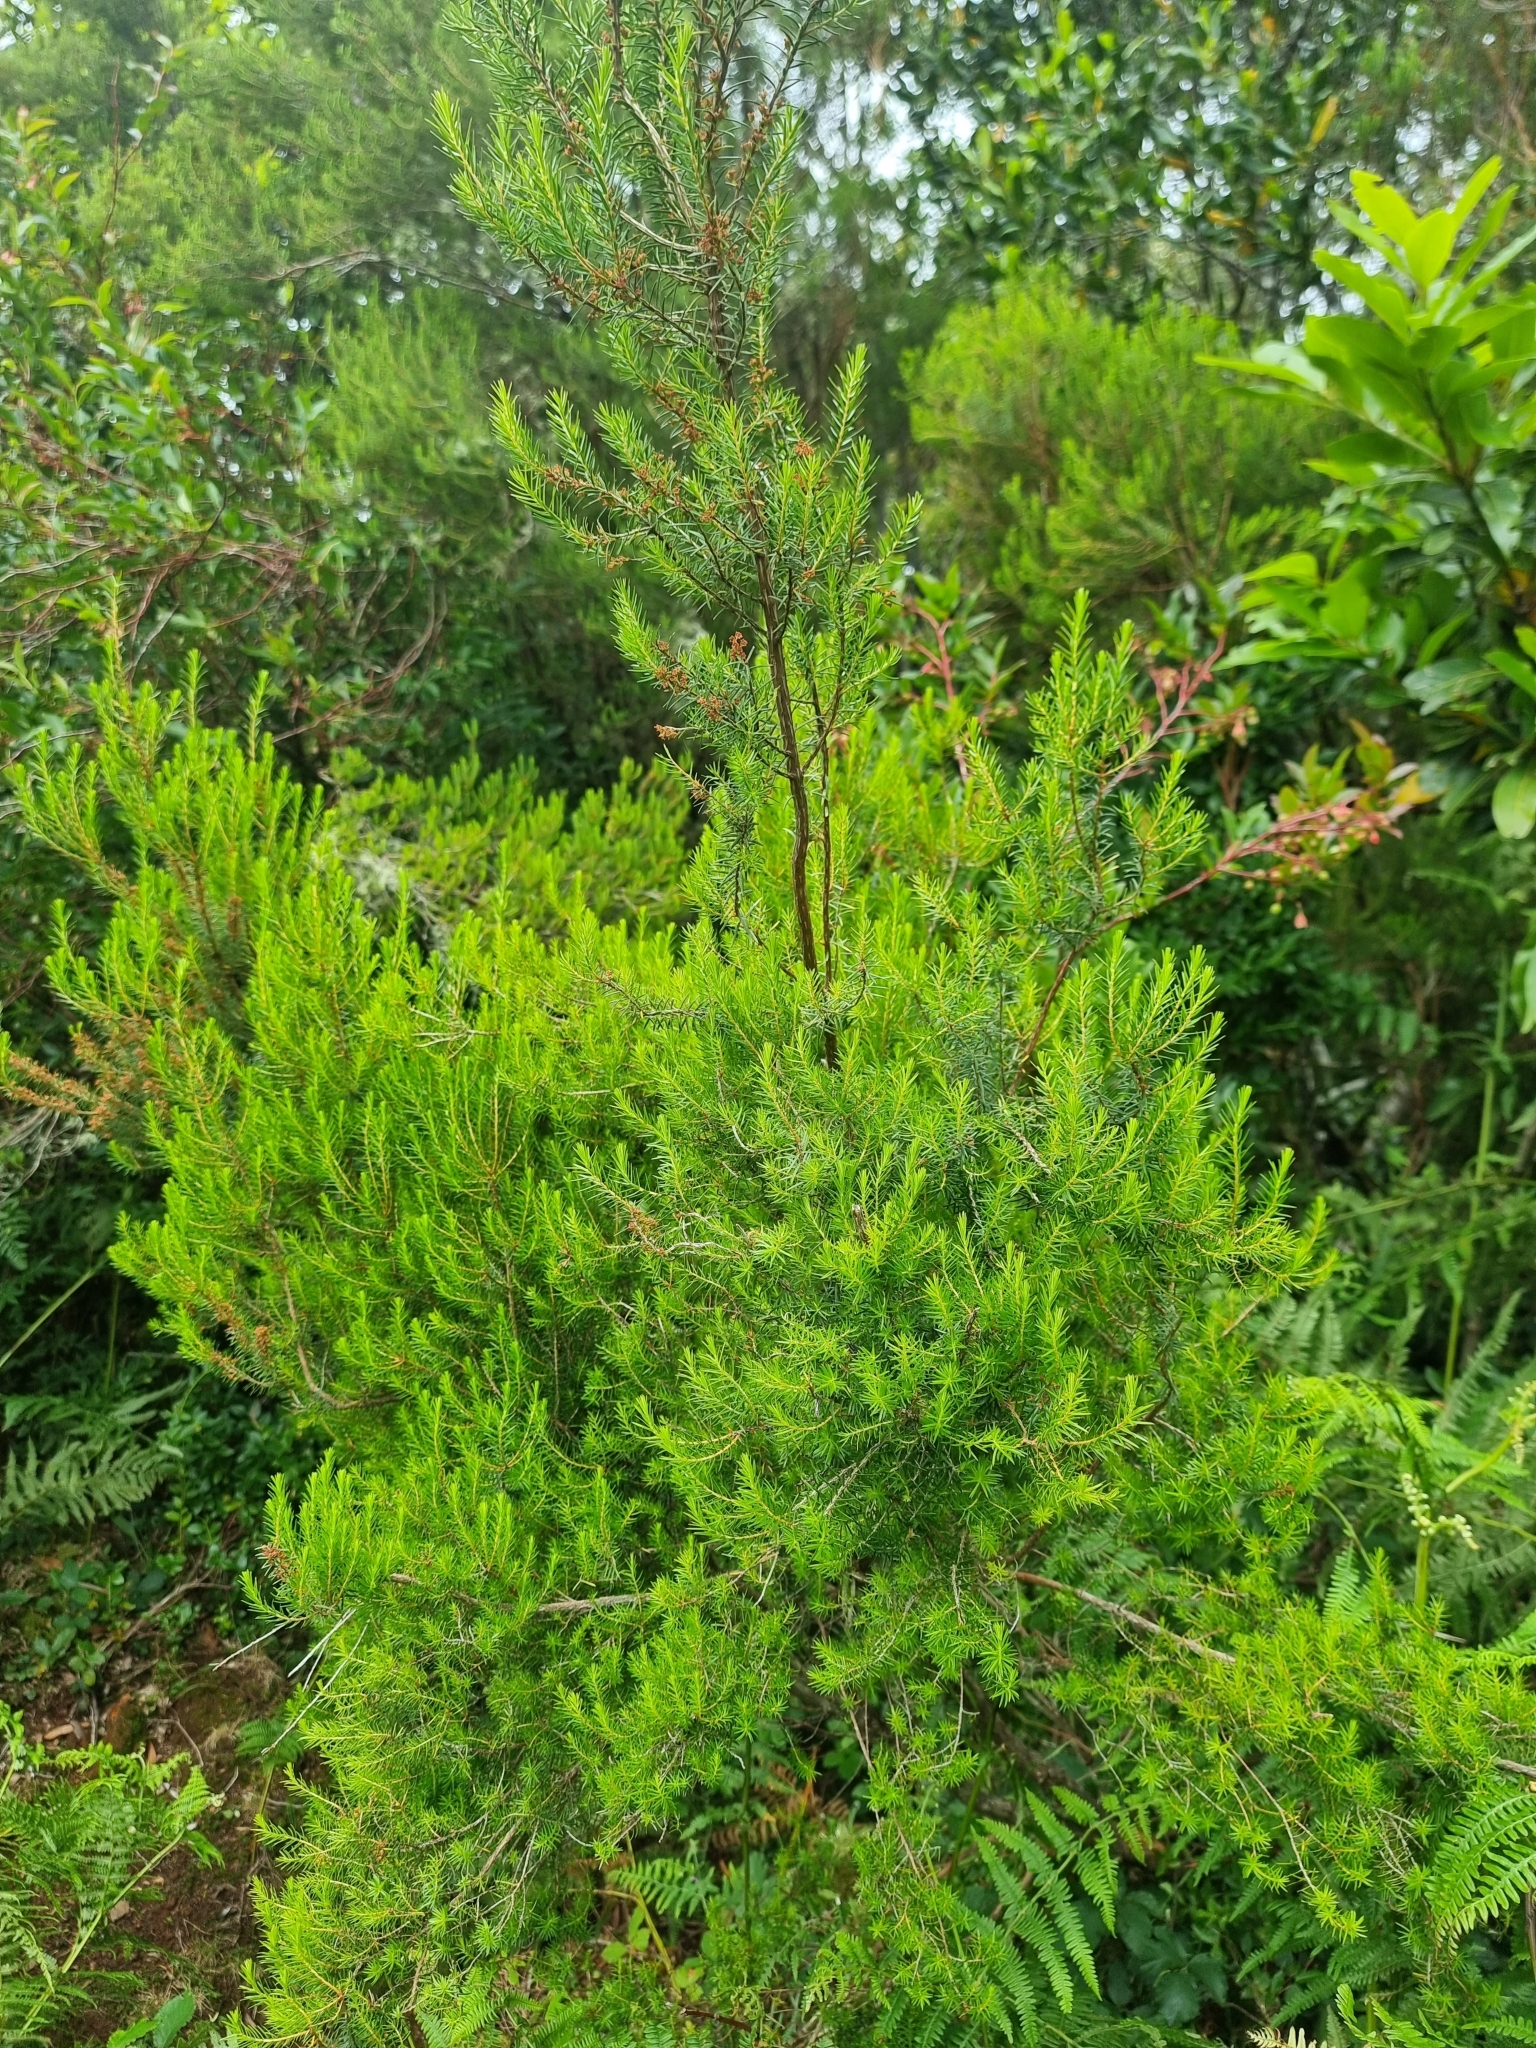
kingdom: Plantae
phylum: Tracheophyta
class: Magnoliopsida
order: Ericales
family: Ericaceae
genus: Erica
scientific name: Erica platycodon
